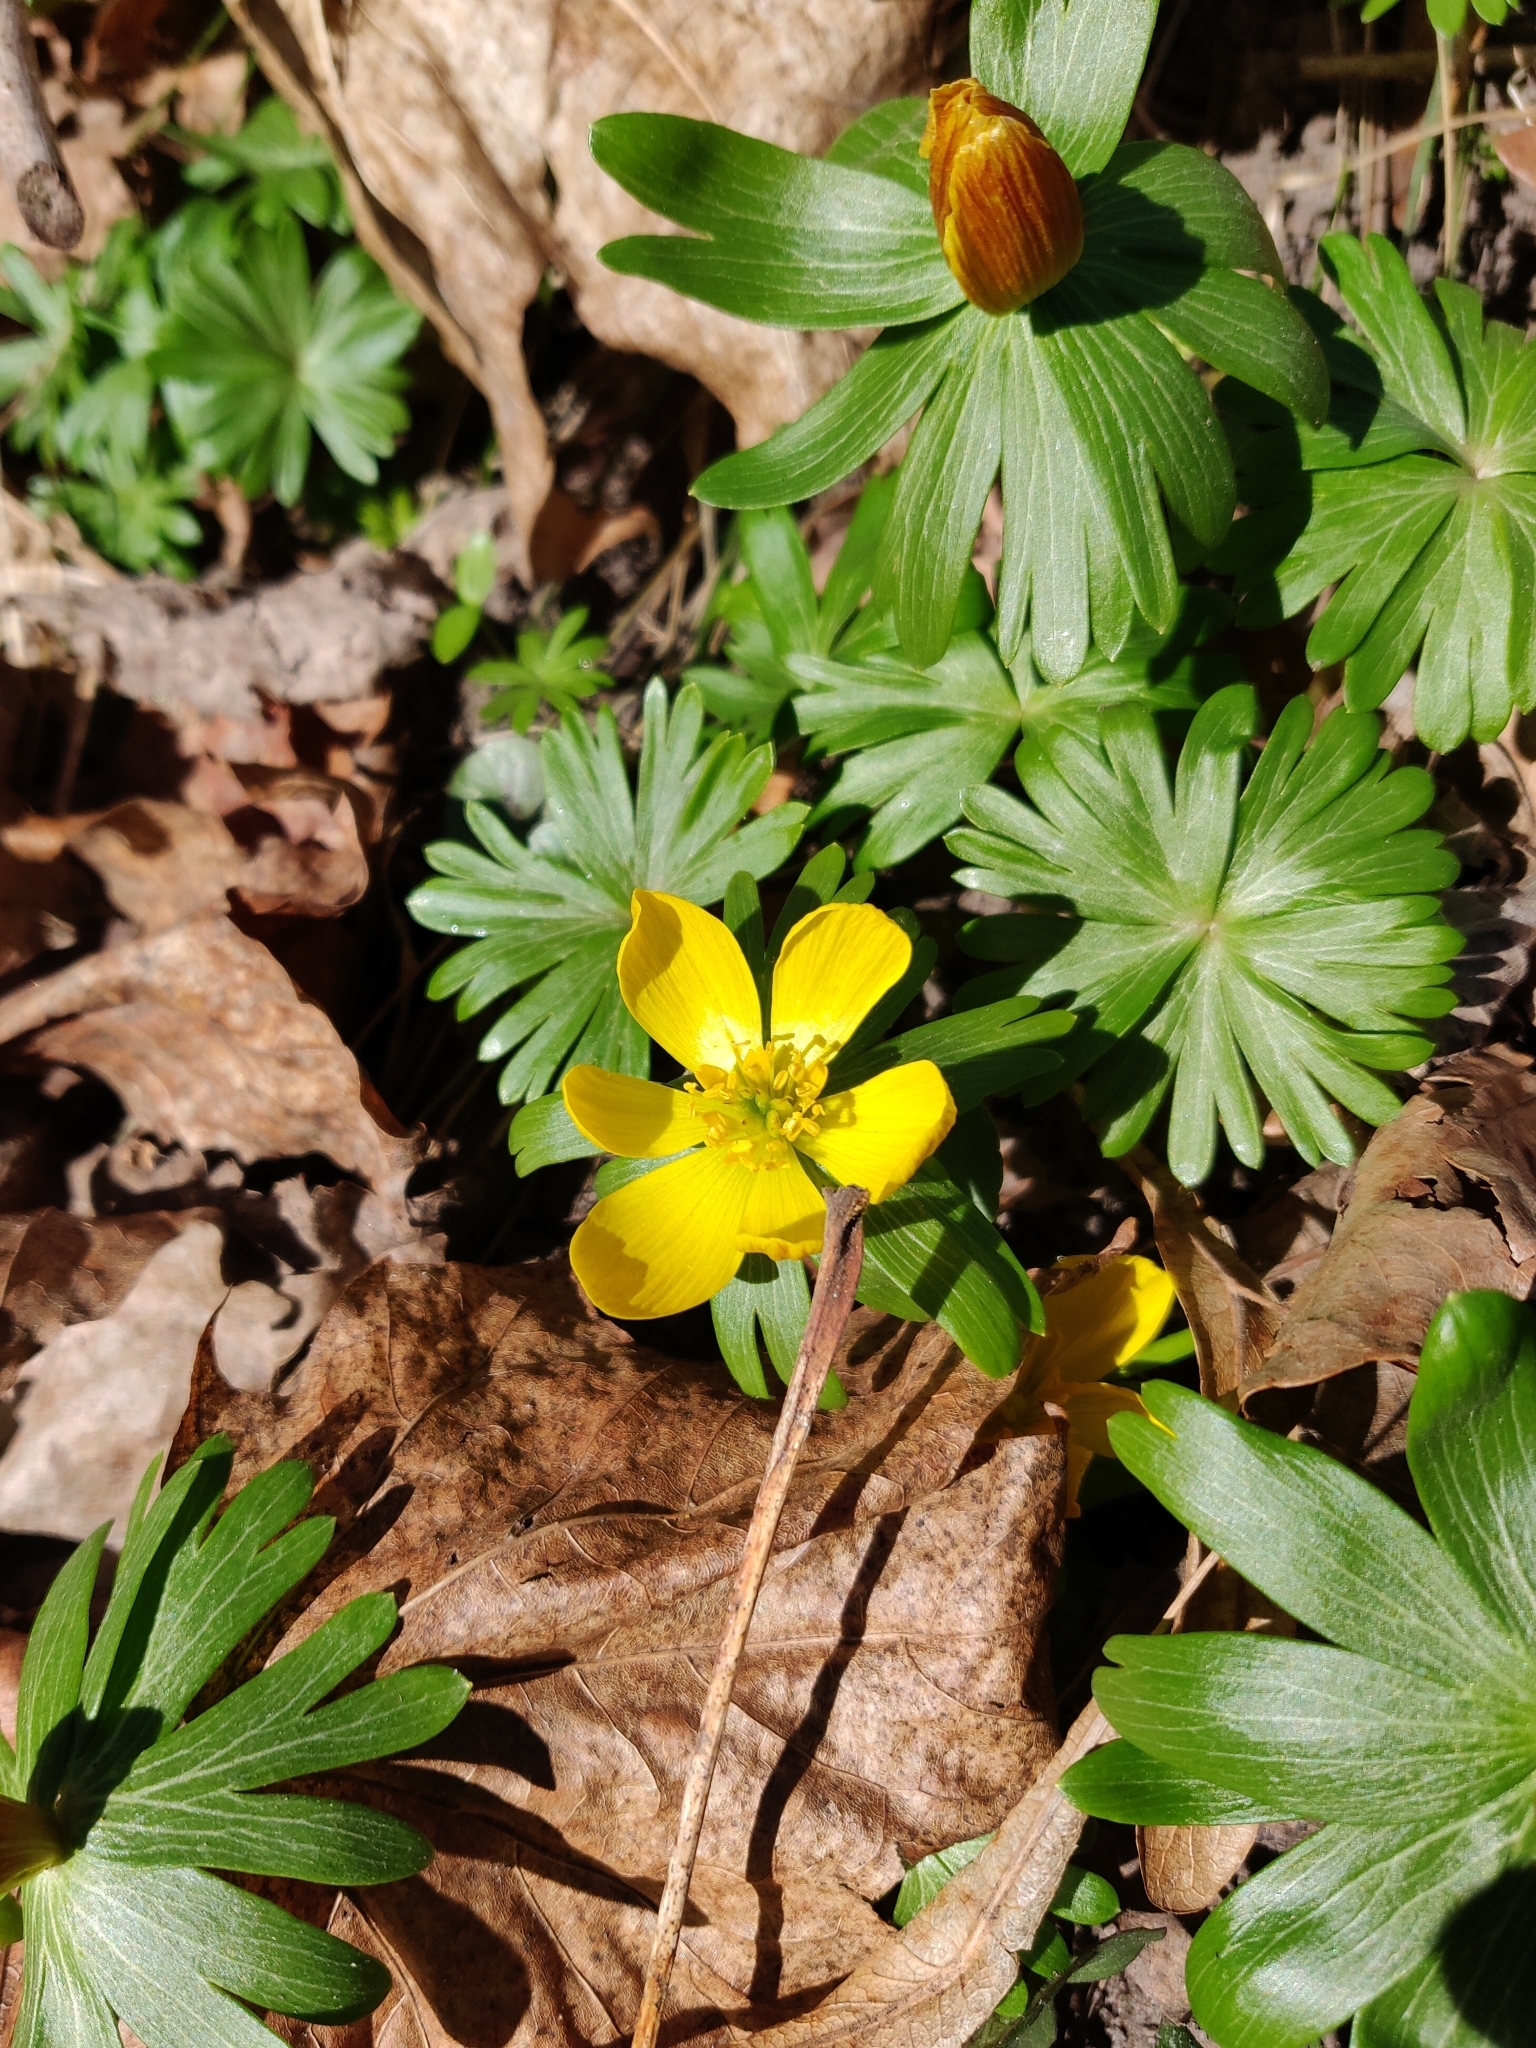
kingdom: Plantae
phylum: Tracheophyta
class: Magnoliopsida
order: Ranunculales
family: Ranunculaceae
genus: Eranthis
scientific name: Eranthis hyemalis
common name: Winter aconite
